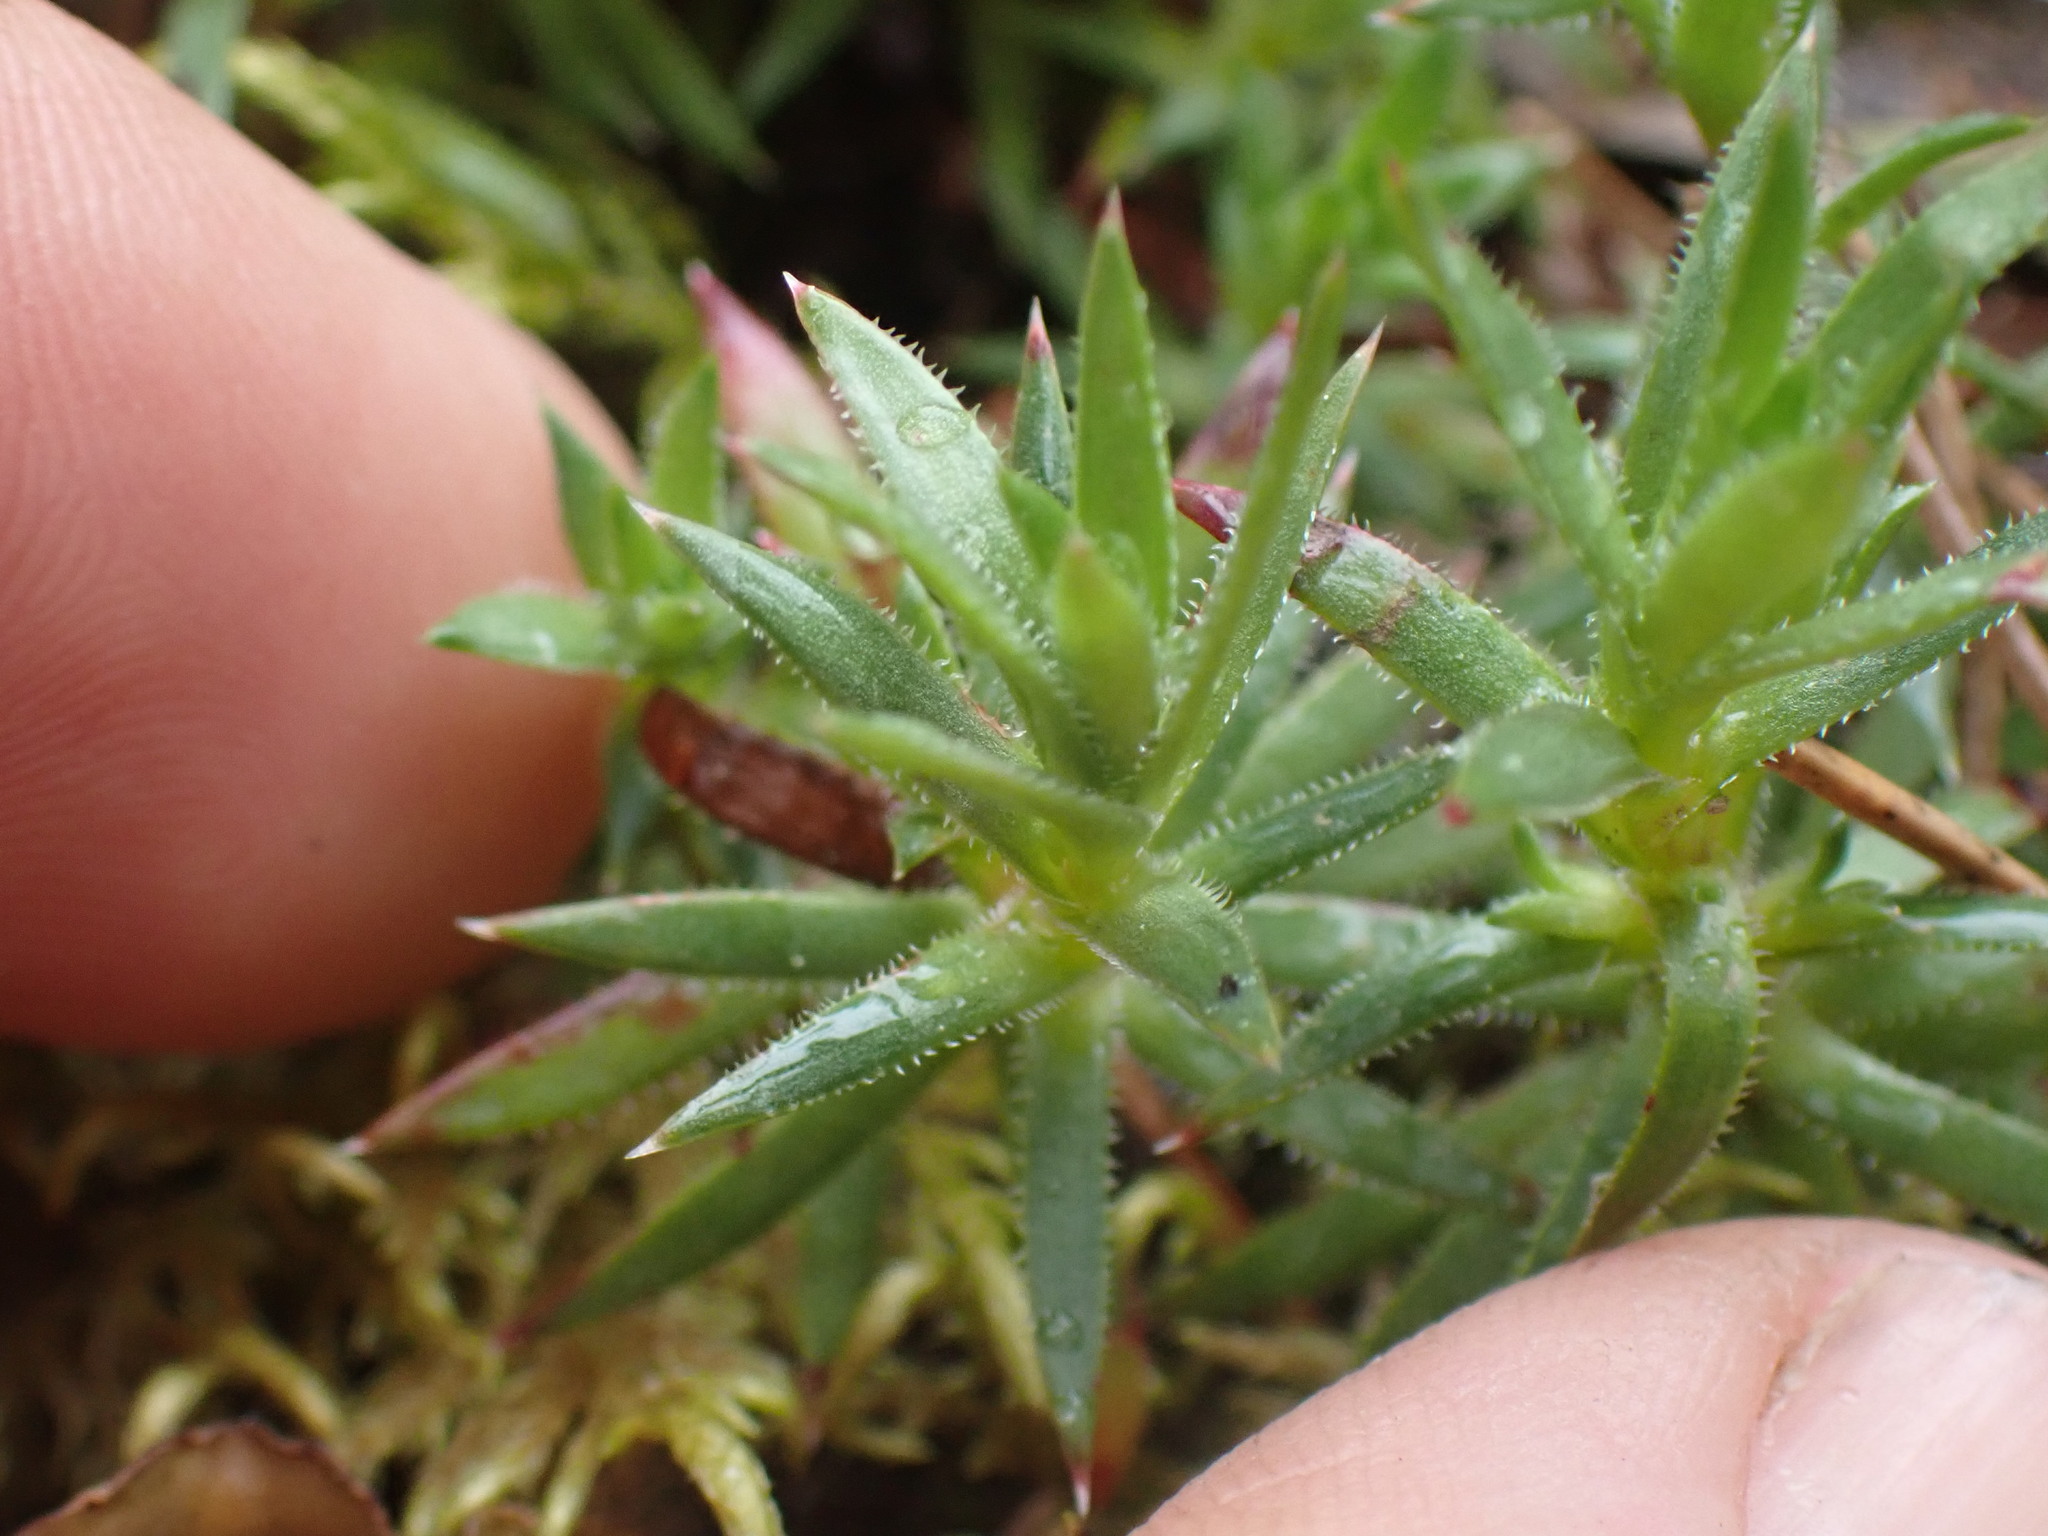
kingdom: Plantae
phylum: Tracheophyta
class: Magnoliopsida
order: Saxifragales
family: Saxifragaceae
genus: Saxifraga
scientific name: Saxifraga bronchialis
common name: Matted saxifrage
